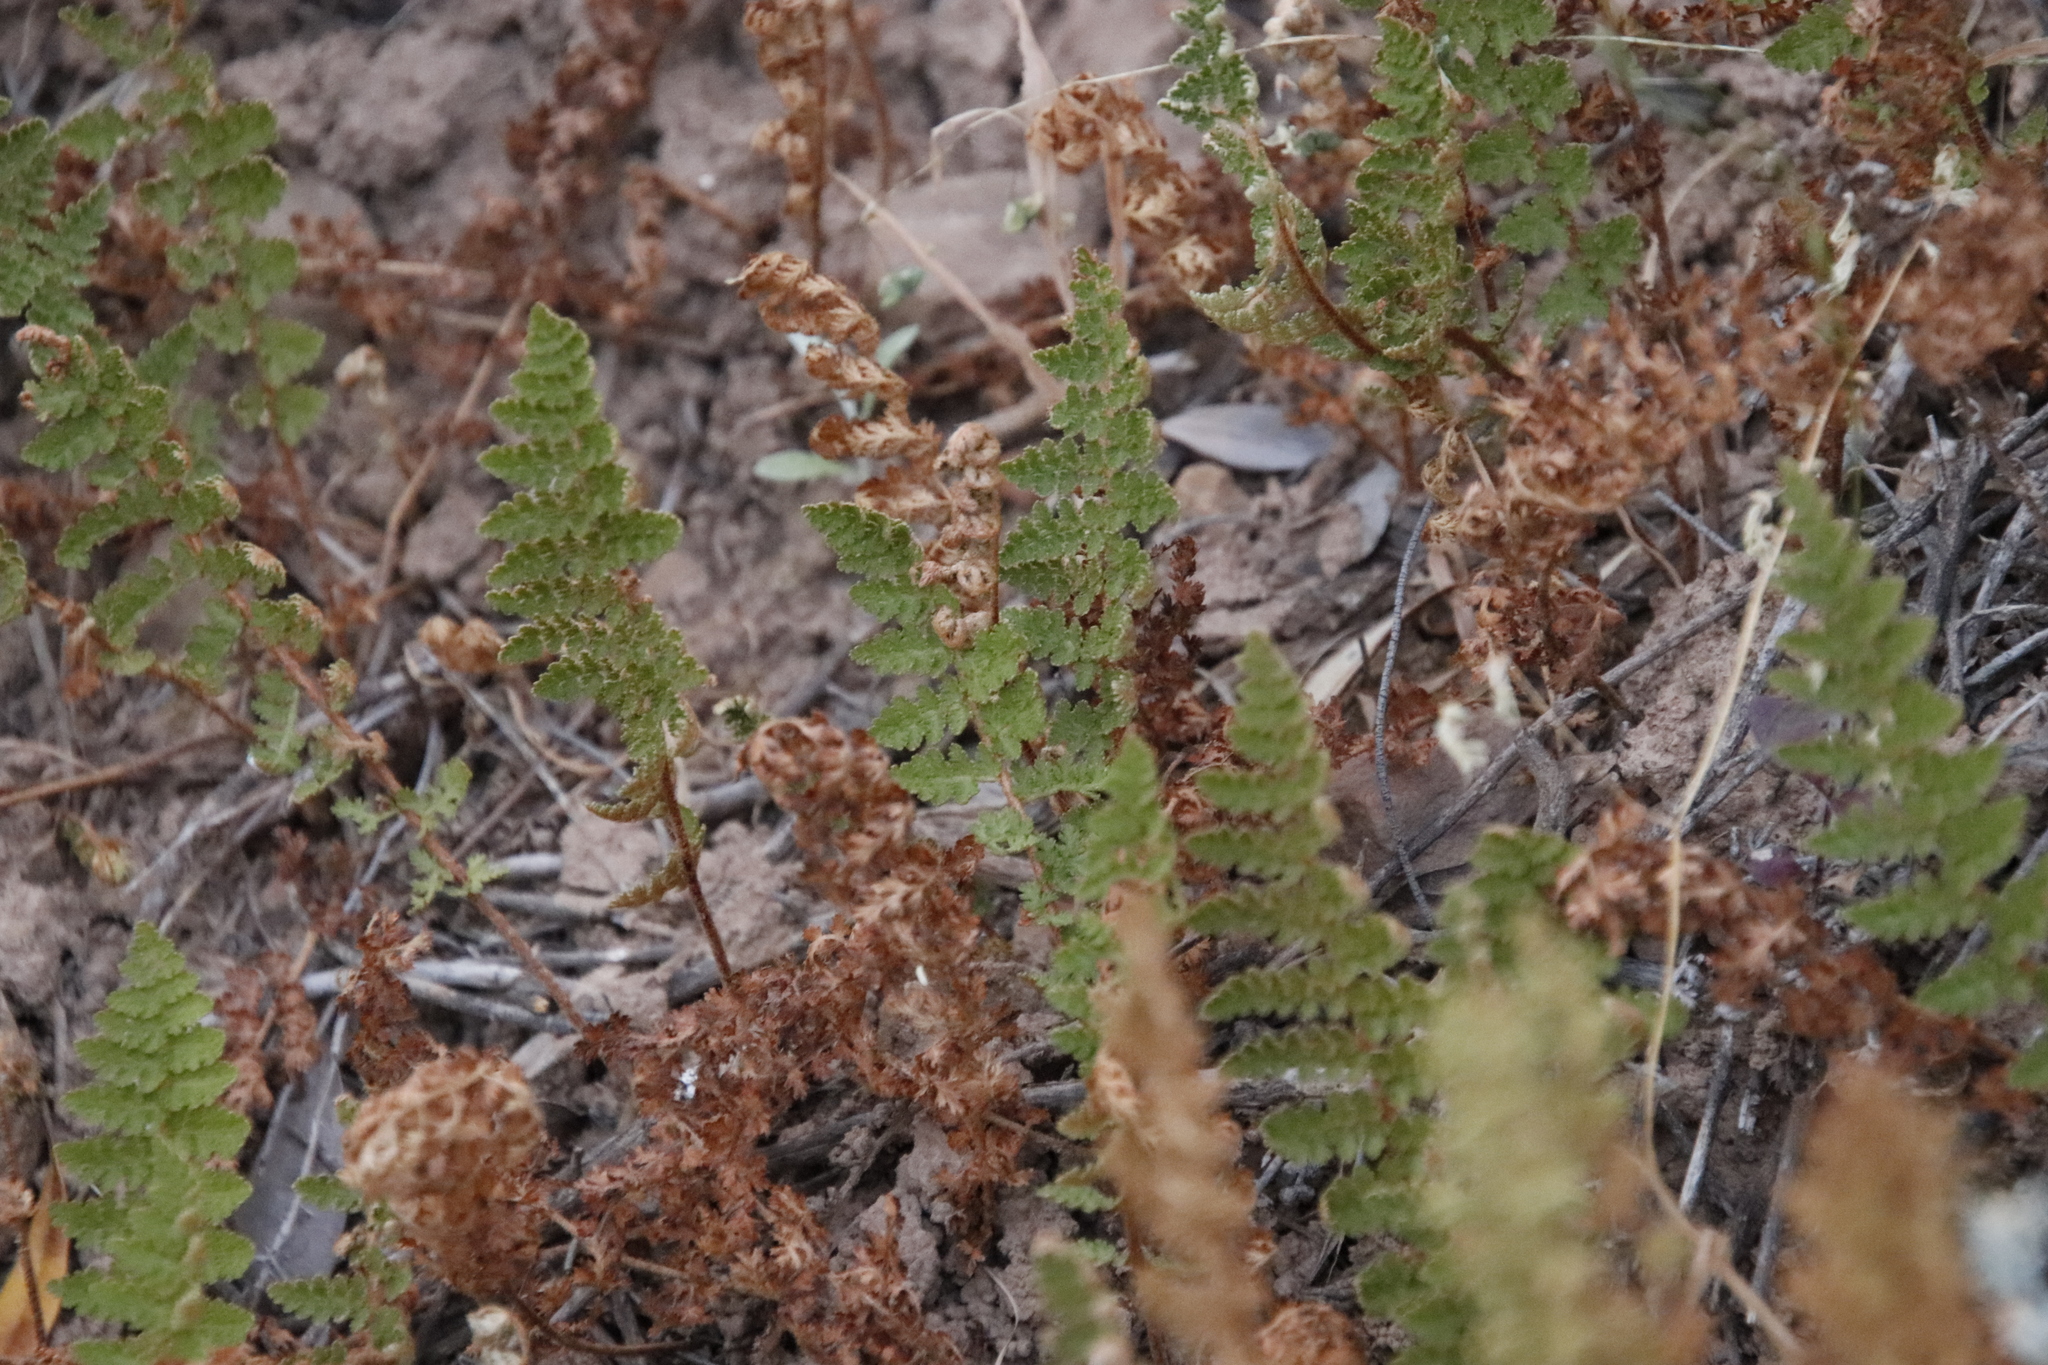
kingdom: Plantae
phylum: Tracheophyta
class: Polypodiopsida
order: Schizaeales
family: Anemiaceae
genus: Anemia
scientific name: Anemia caffrorum
